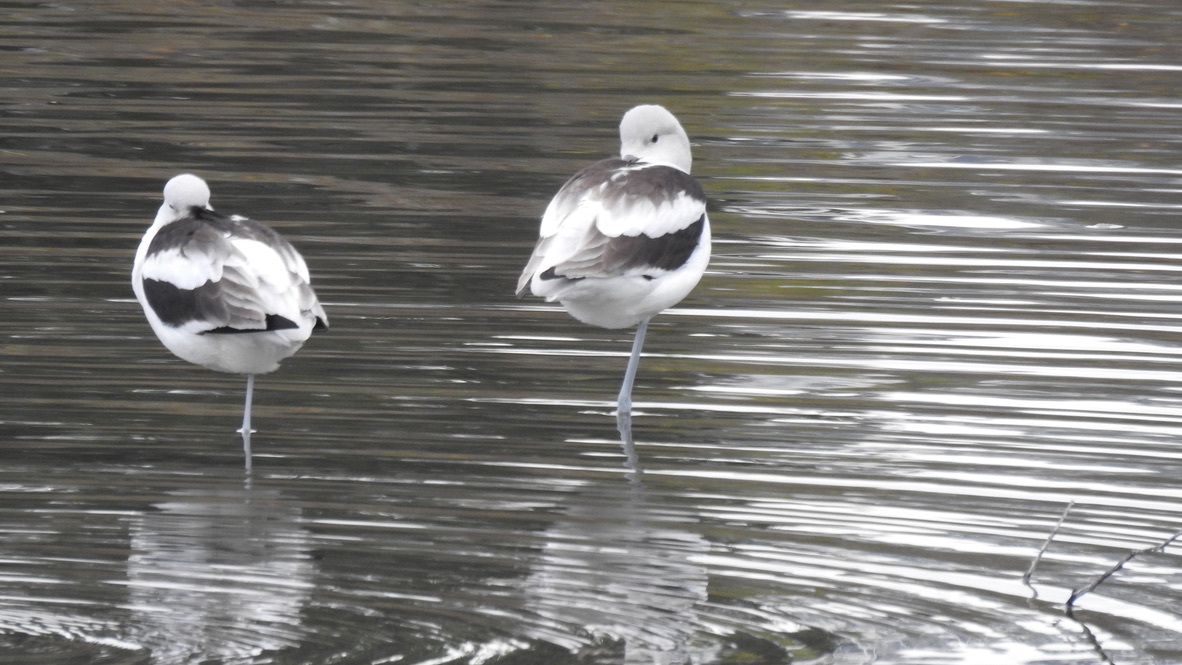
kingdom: Animalia
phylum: Chordata
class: Aves
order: Charadriiformes
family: Recurvirostridae
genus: Recurvirostra
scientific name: Recurvirostra americana
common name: American avocet
